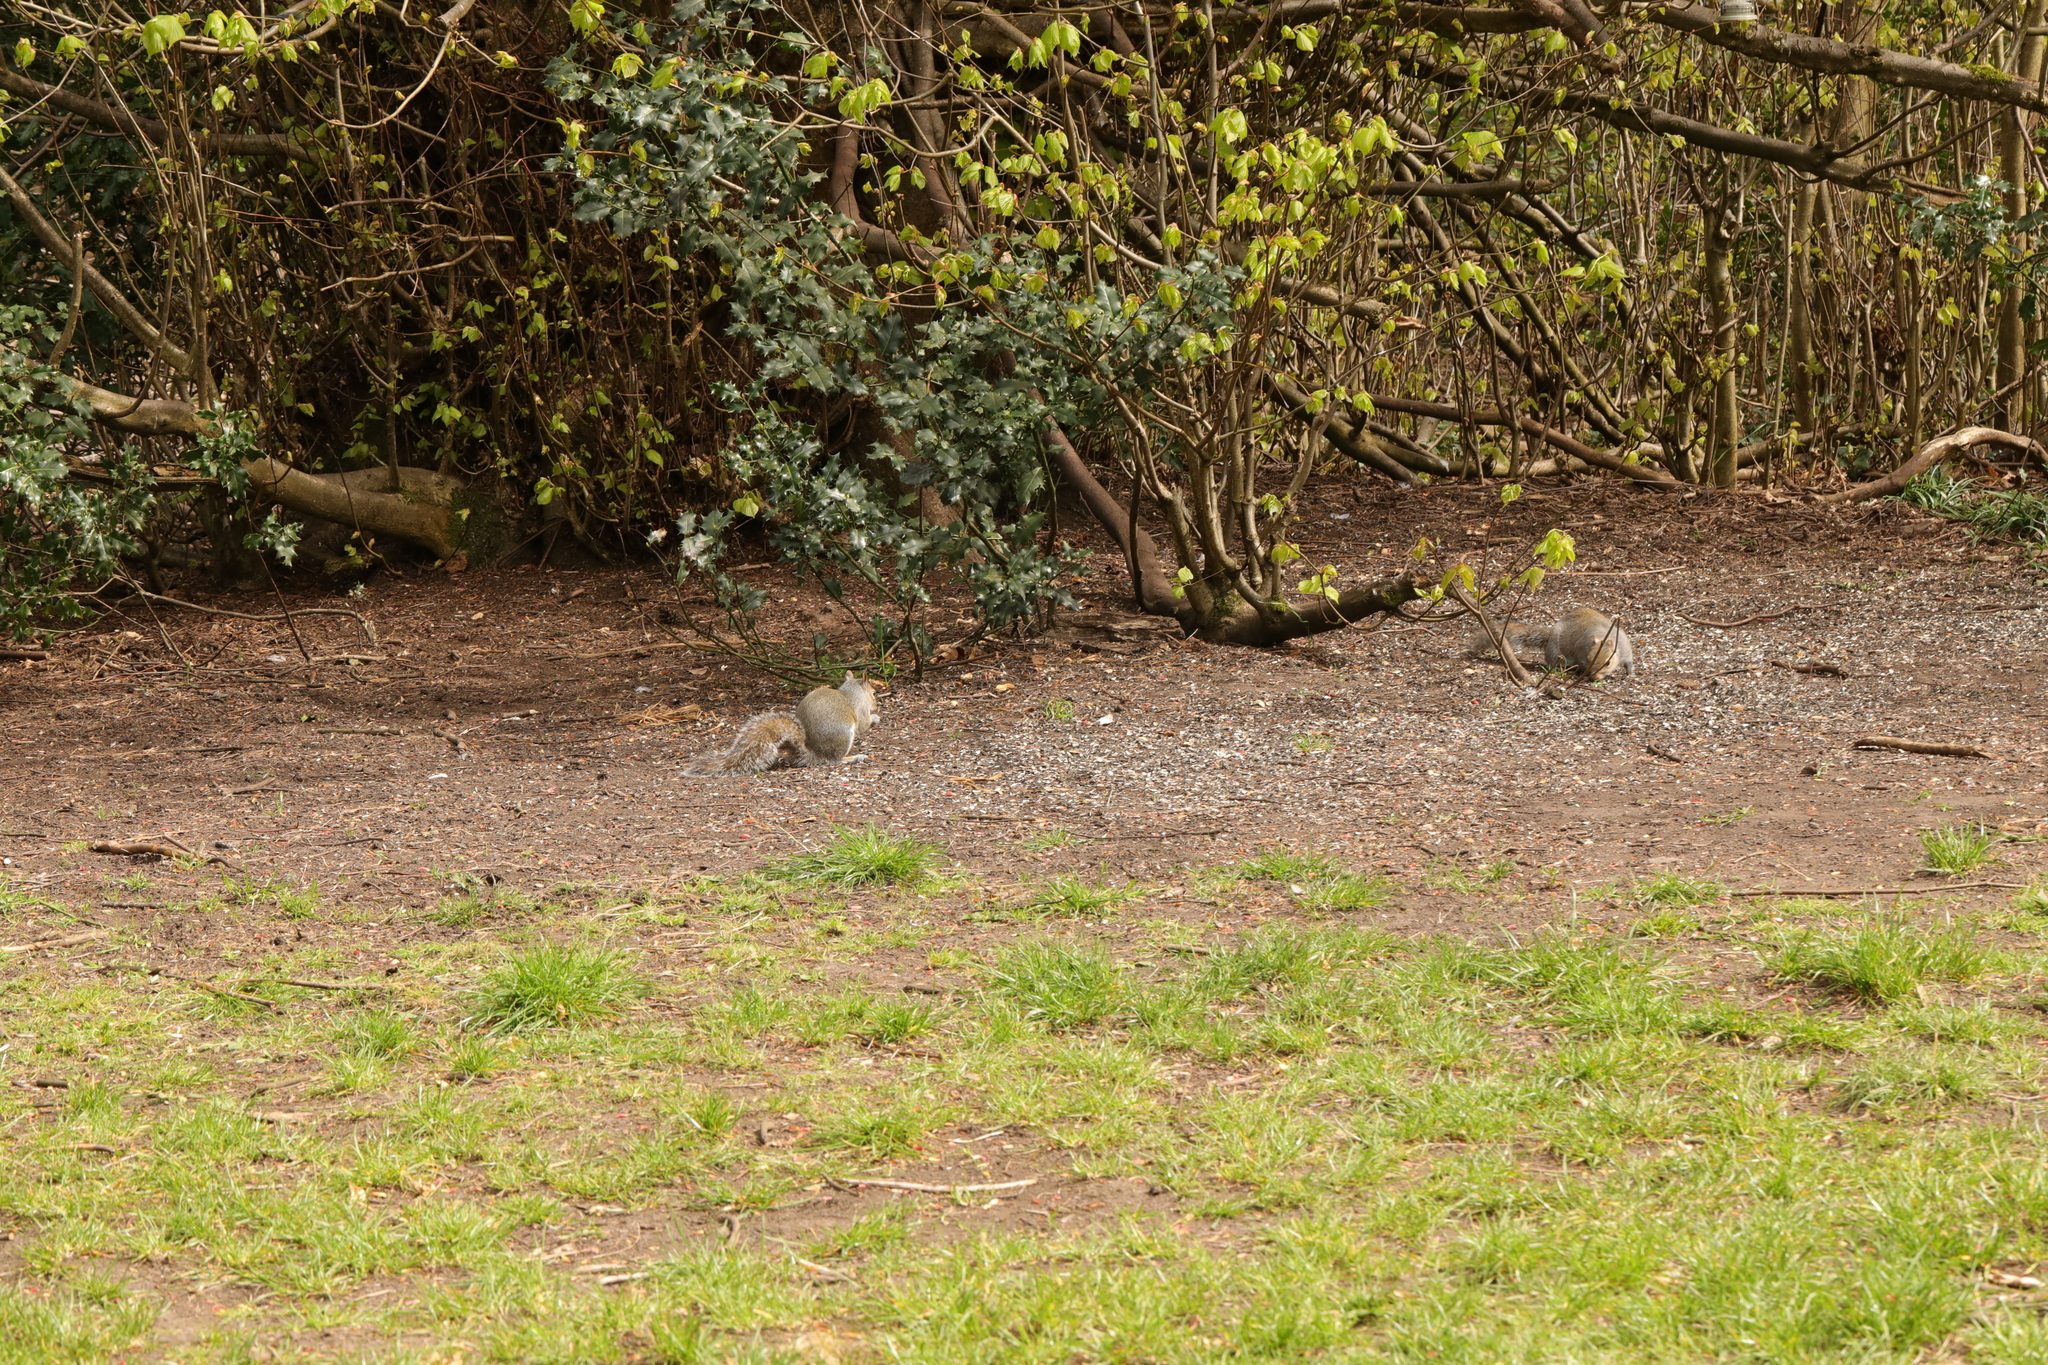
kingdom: Animalia
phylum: Chordata
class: Mammalia
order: Rodentia
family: Sciuridae
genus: Sciurus
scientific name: Sciurus carolinensis
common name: Eastern gray squirrel
